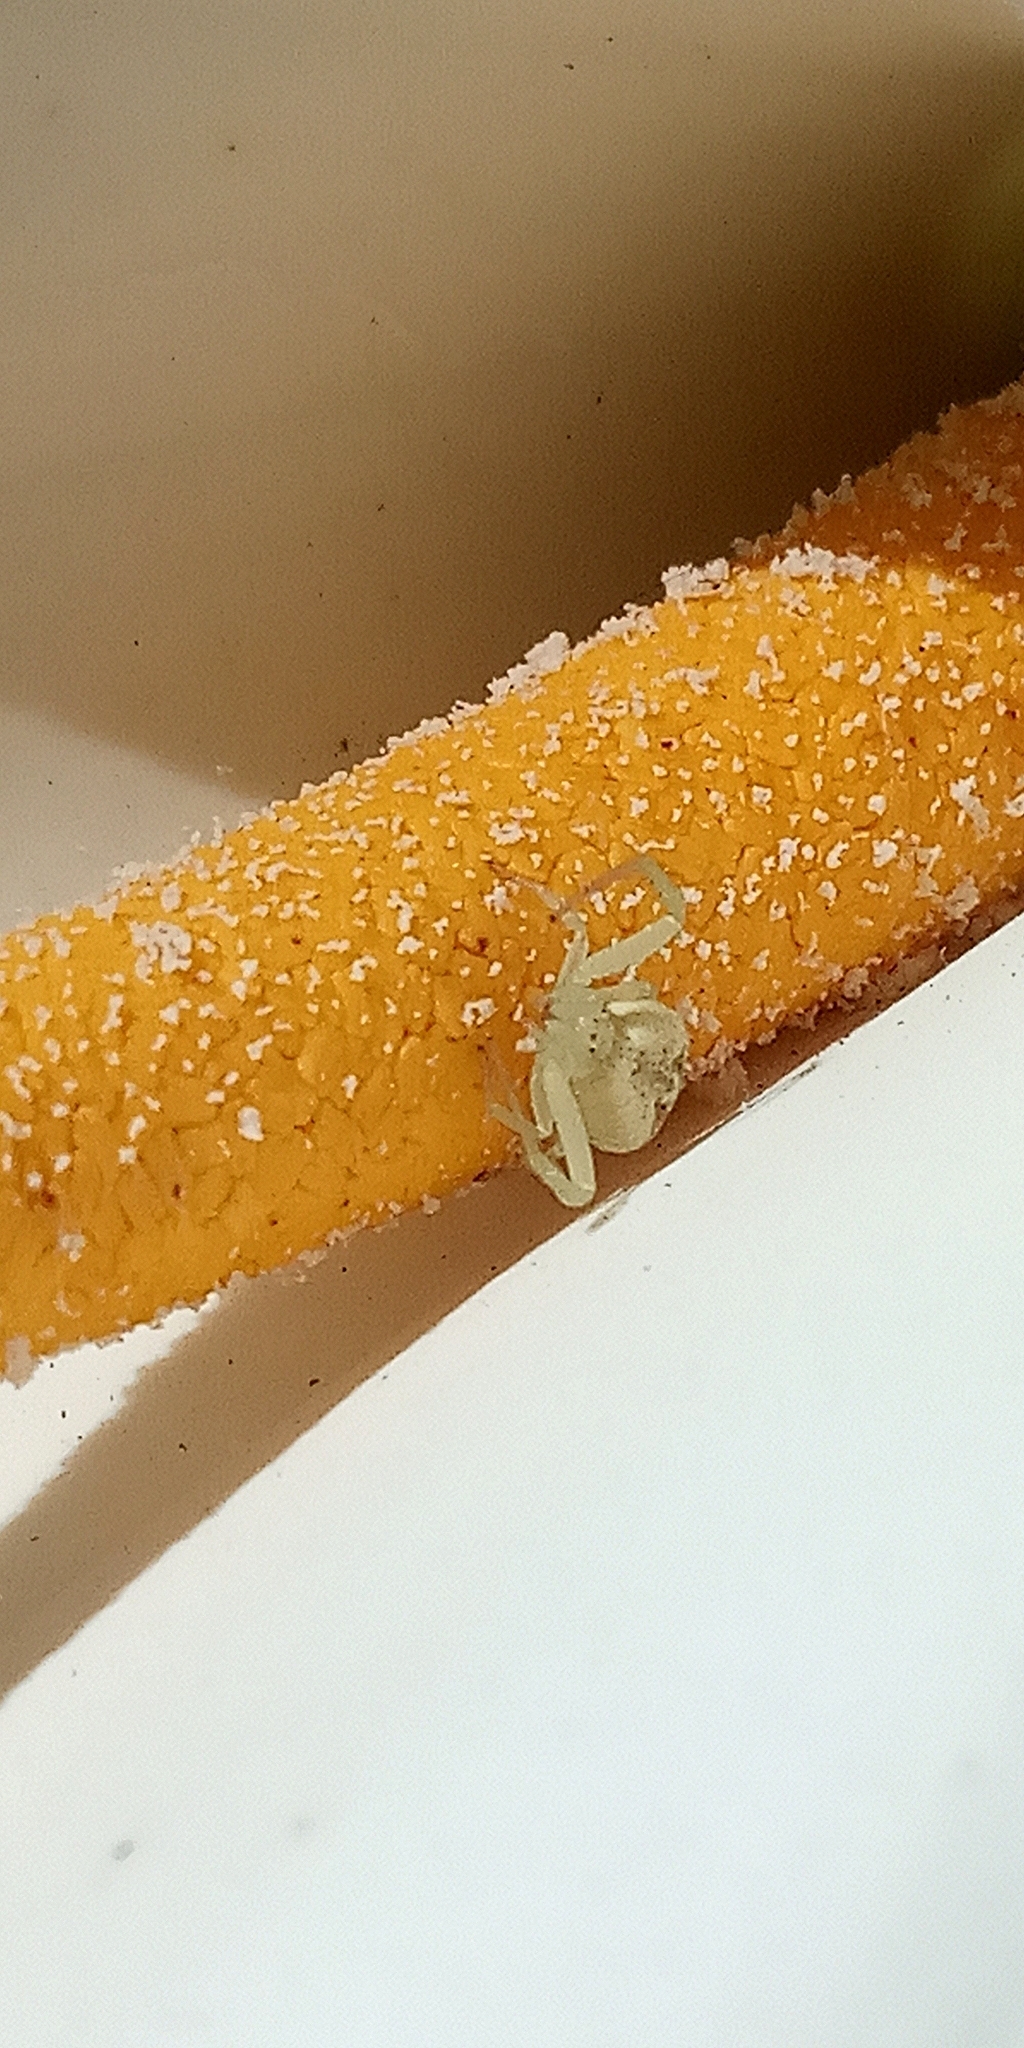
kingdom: Animalia
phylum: Arthropoda
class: Arachnida
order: Araneae
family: Thomisidae
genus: Misumenops
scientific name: Misumenops
